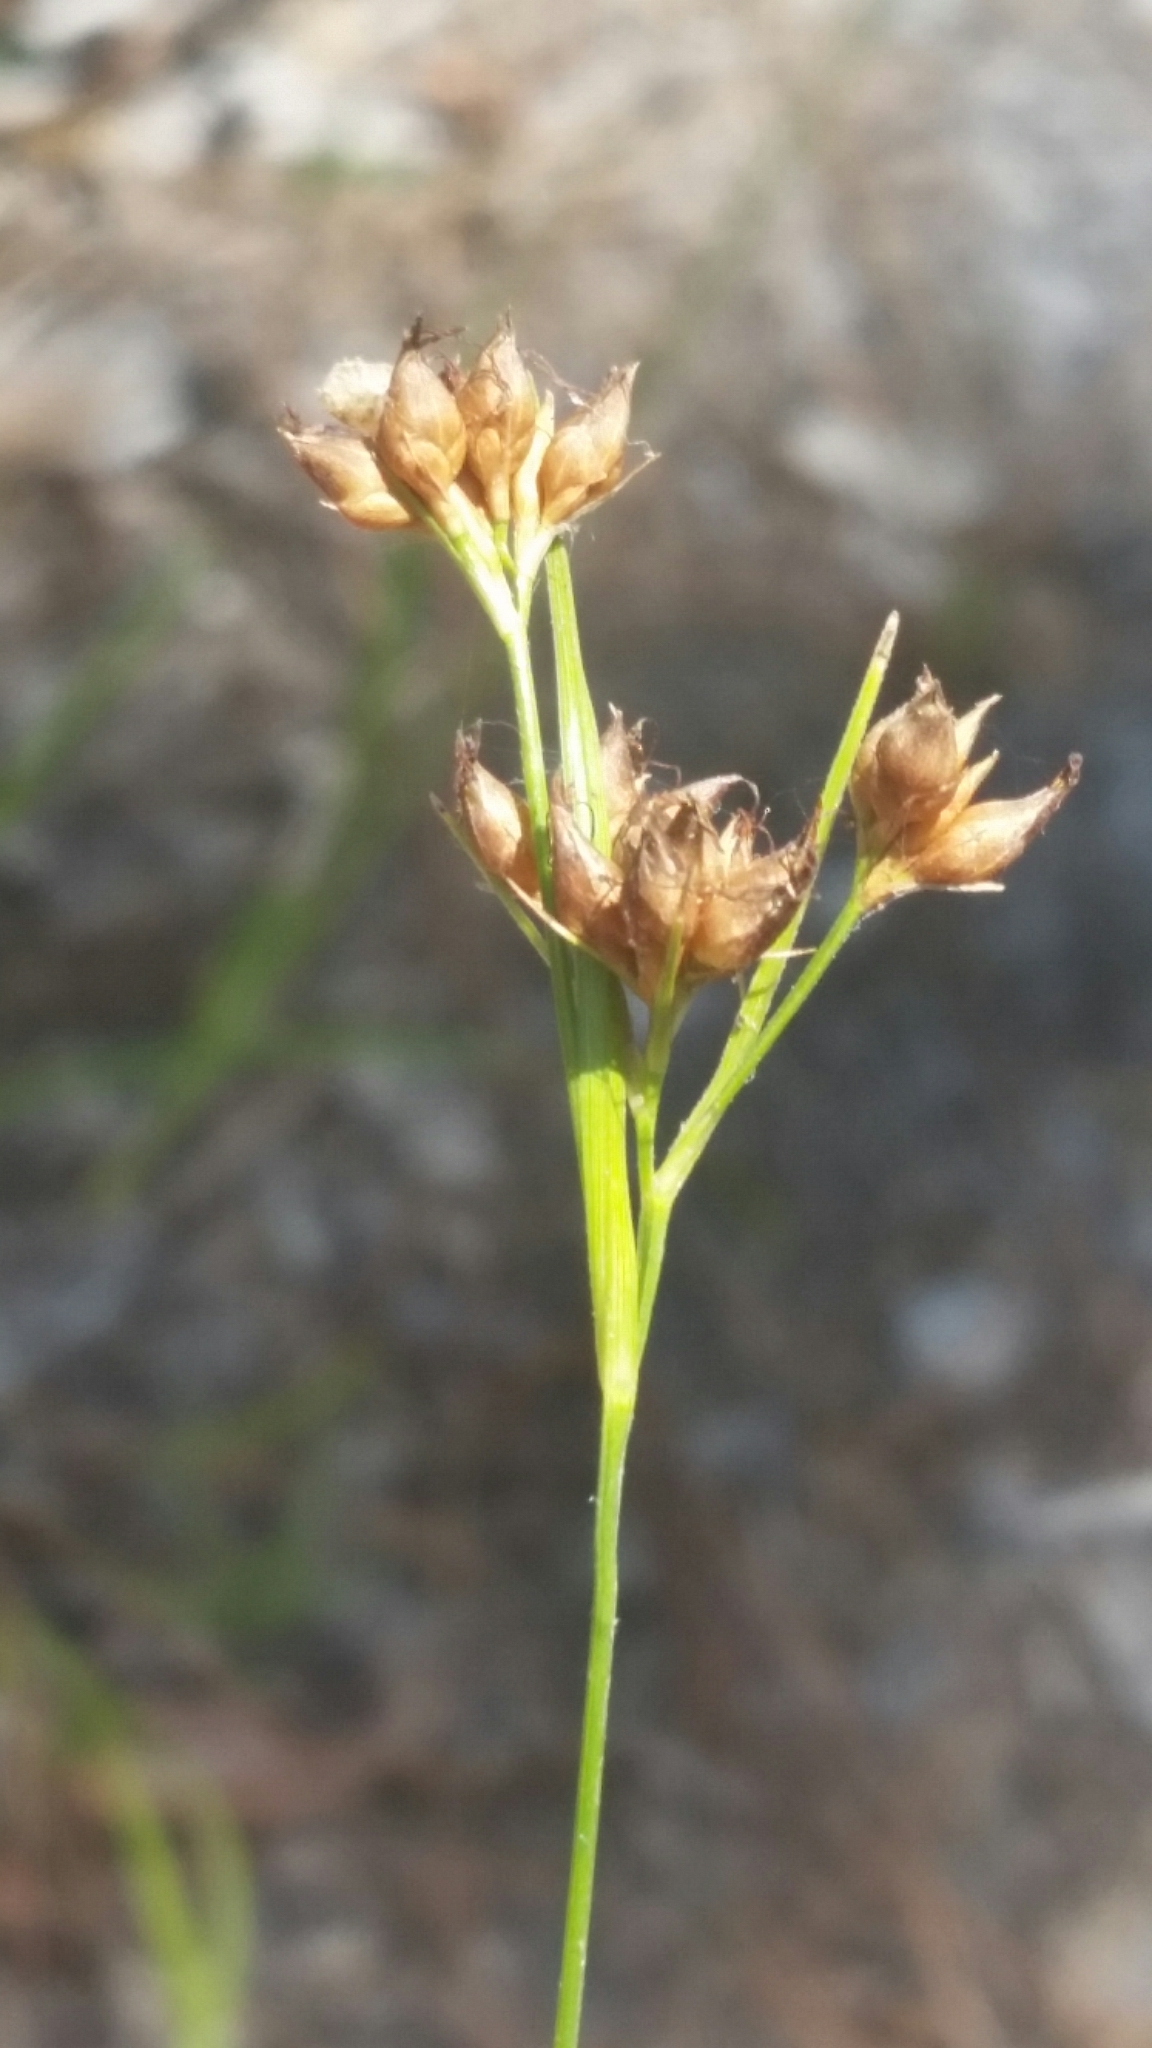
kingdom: Plantae
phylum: Tracheophyta
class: Liliopsida
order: Poales
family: Cyperaceae
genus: Rhynchospora
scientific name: Rhynchospora grayi
